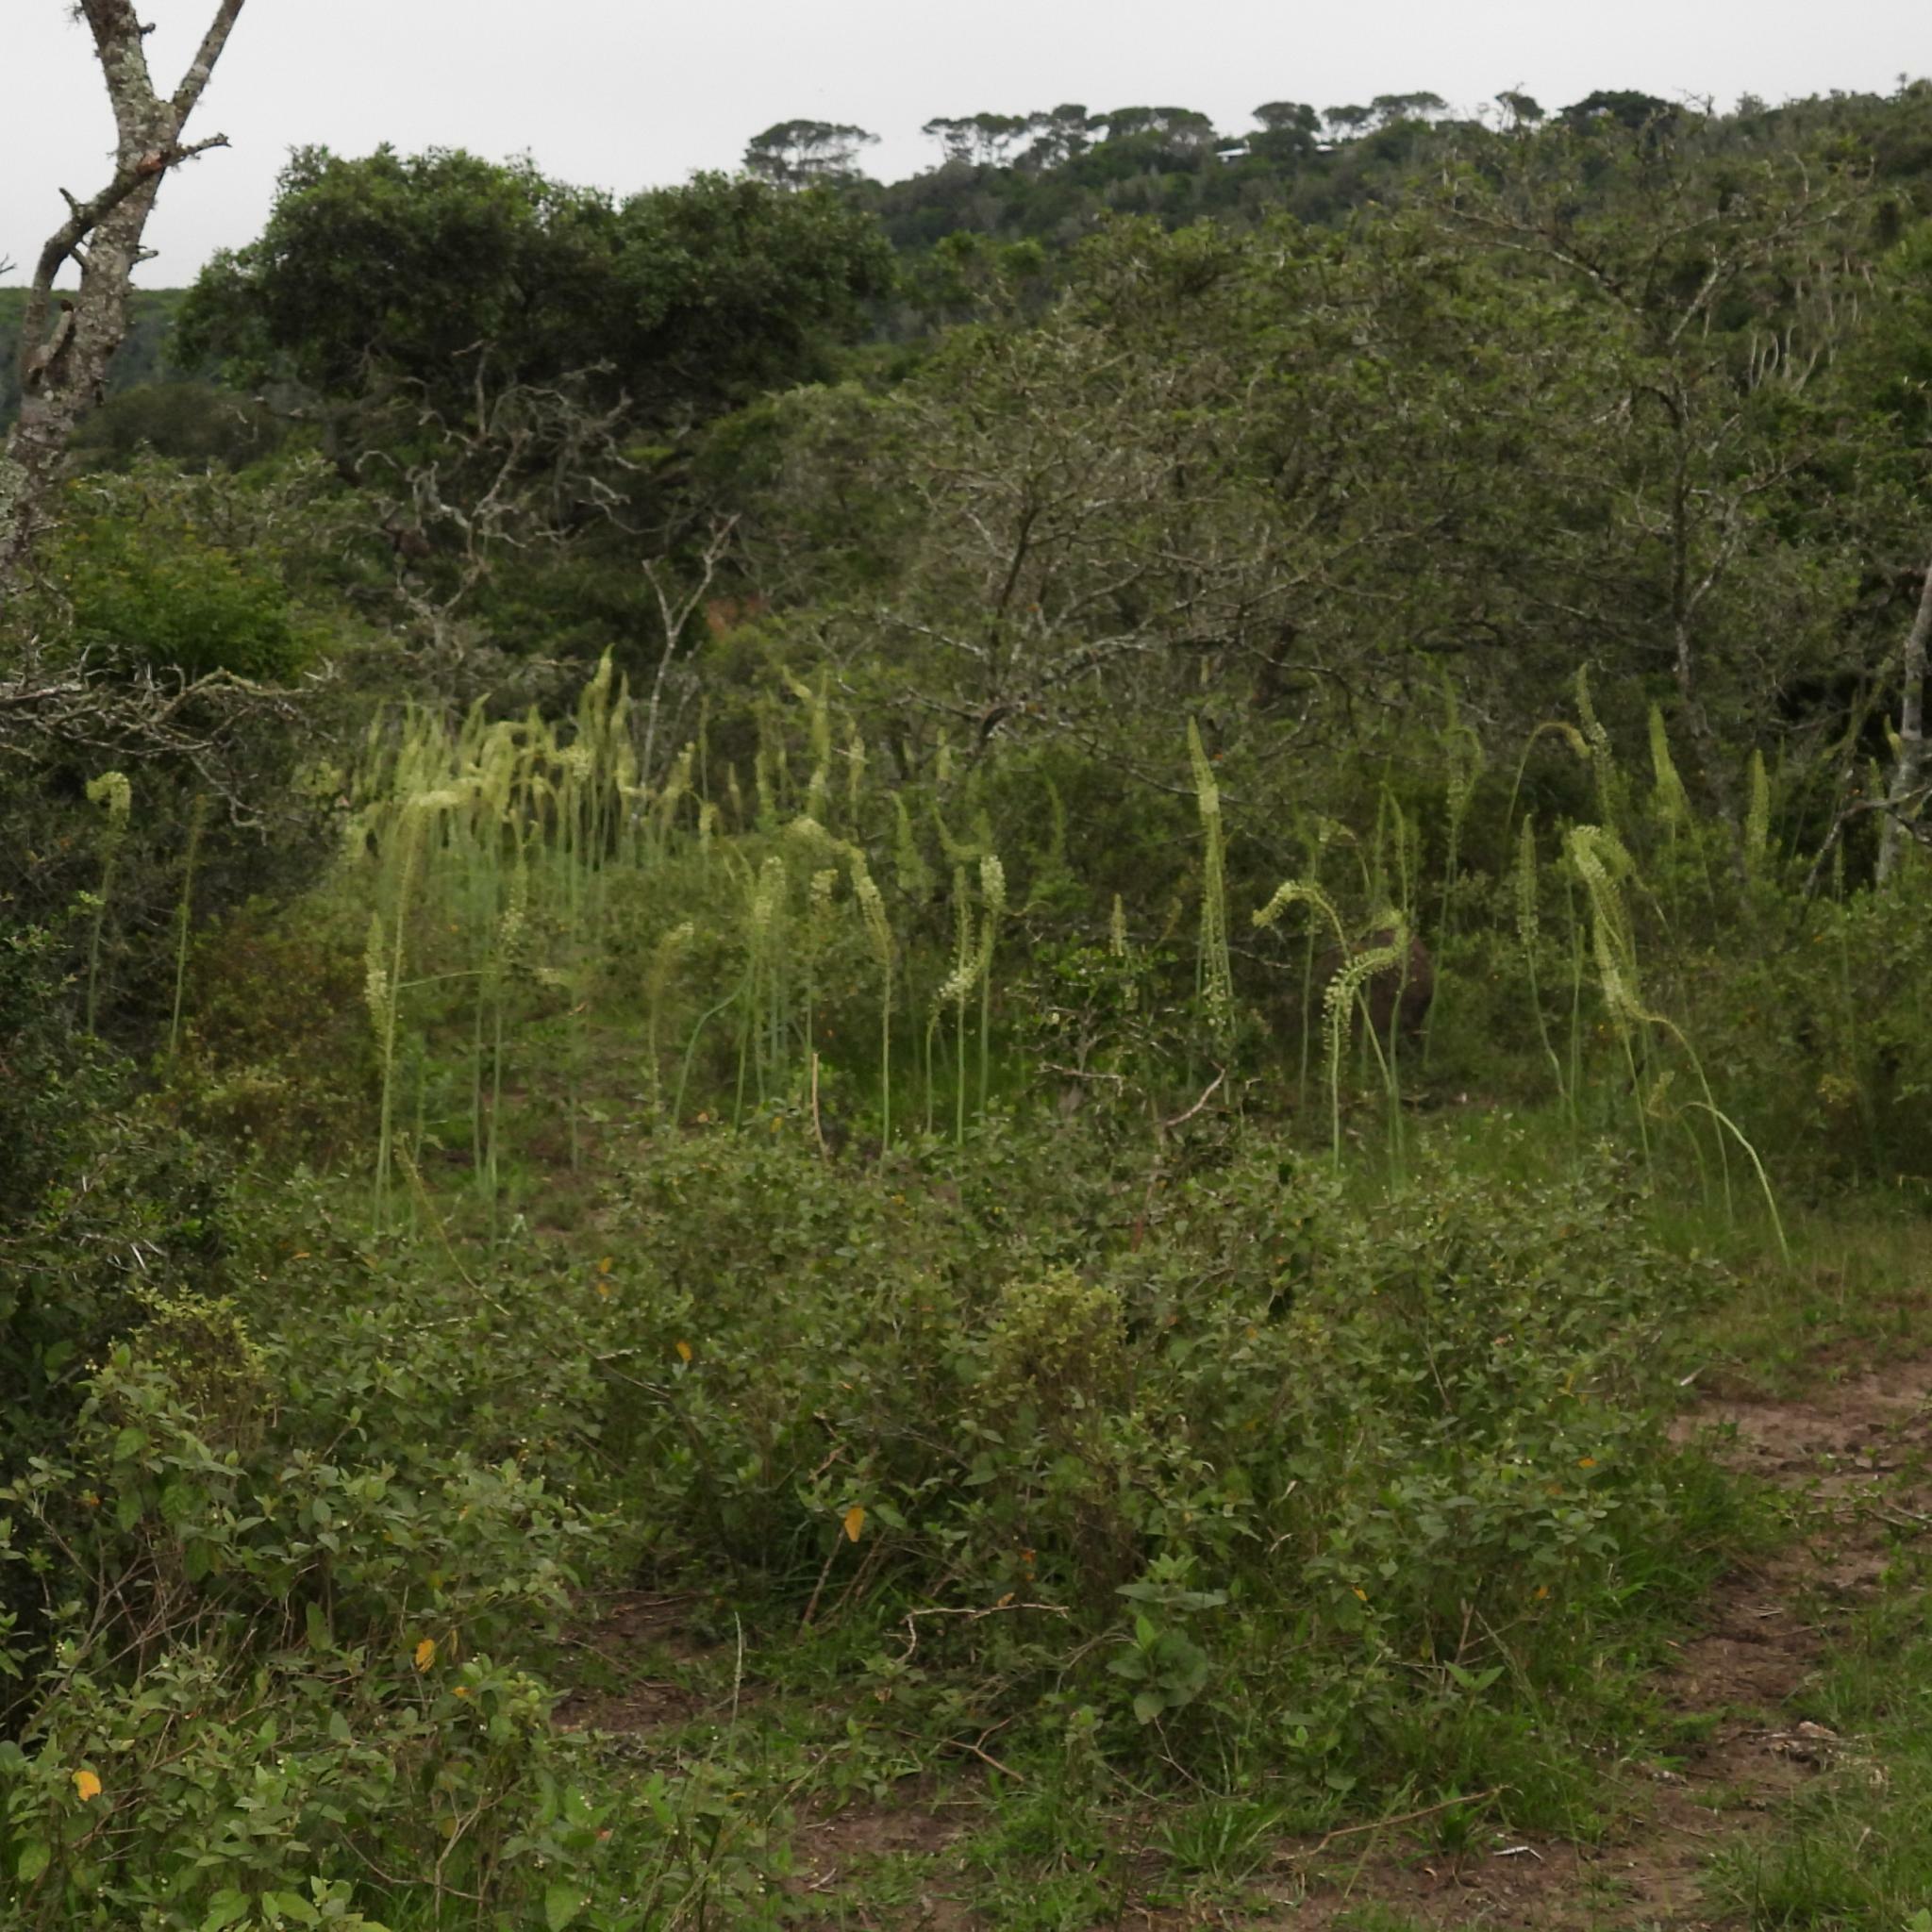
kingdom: Plantae
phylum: Tracheophyta
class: Liliopsida
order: Asparagales
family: Asparagaceae
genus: Drimia
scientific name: Drimia altissima
